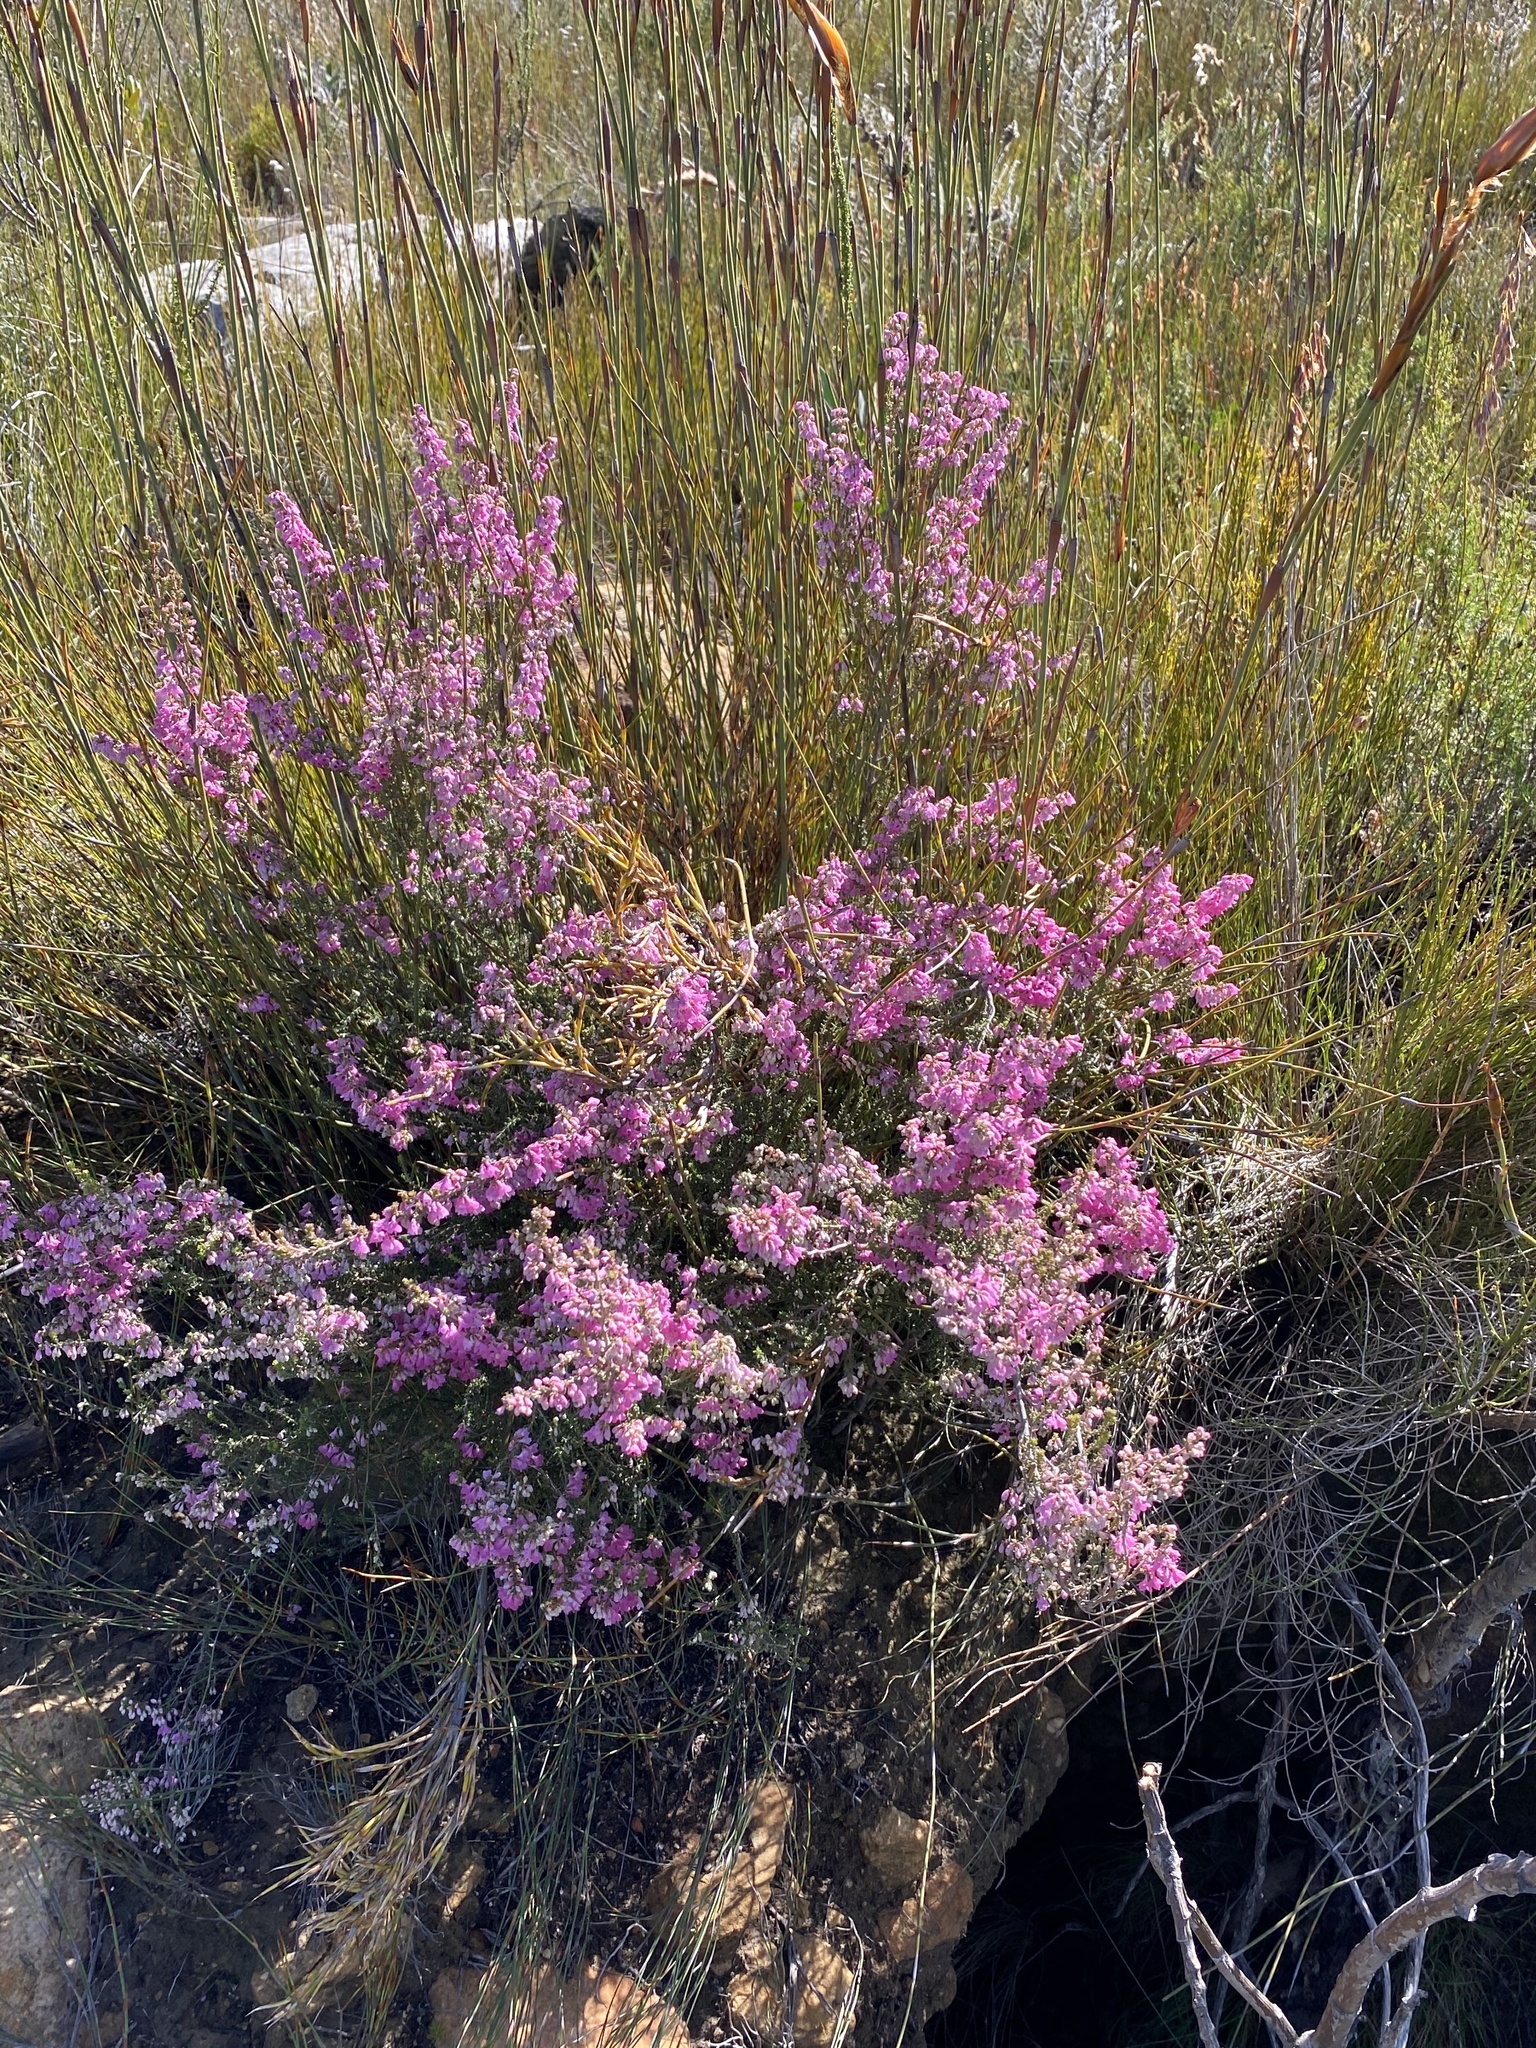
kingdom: Plantae
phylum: Tracheophyta
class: Magnoliopsida
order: Ericales
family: Ericaceae
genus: Erica
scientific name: Erica melanthera
